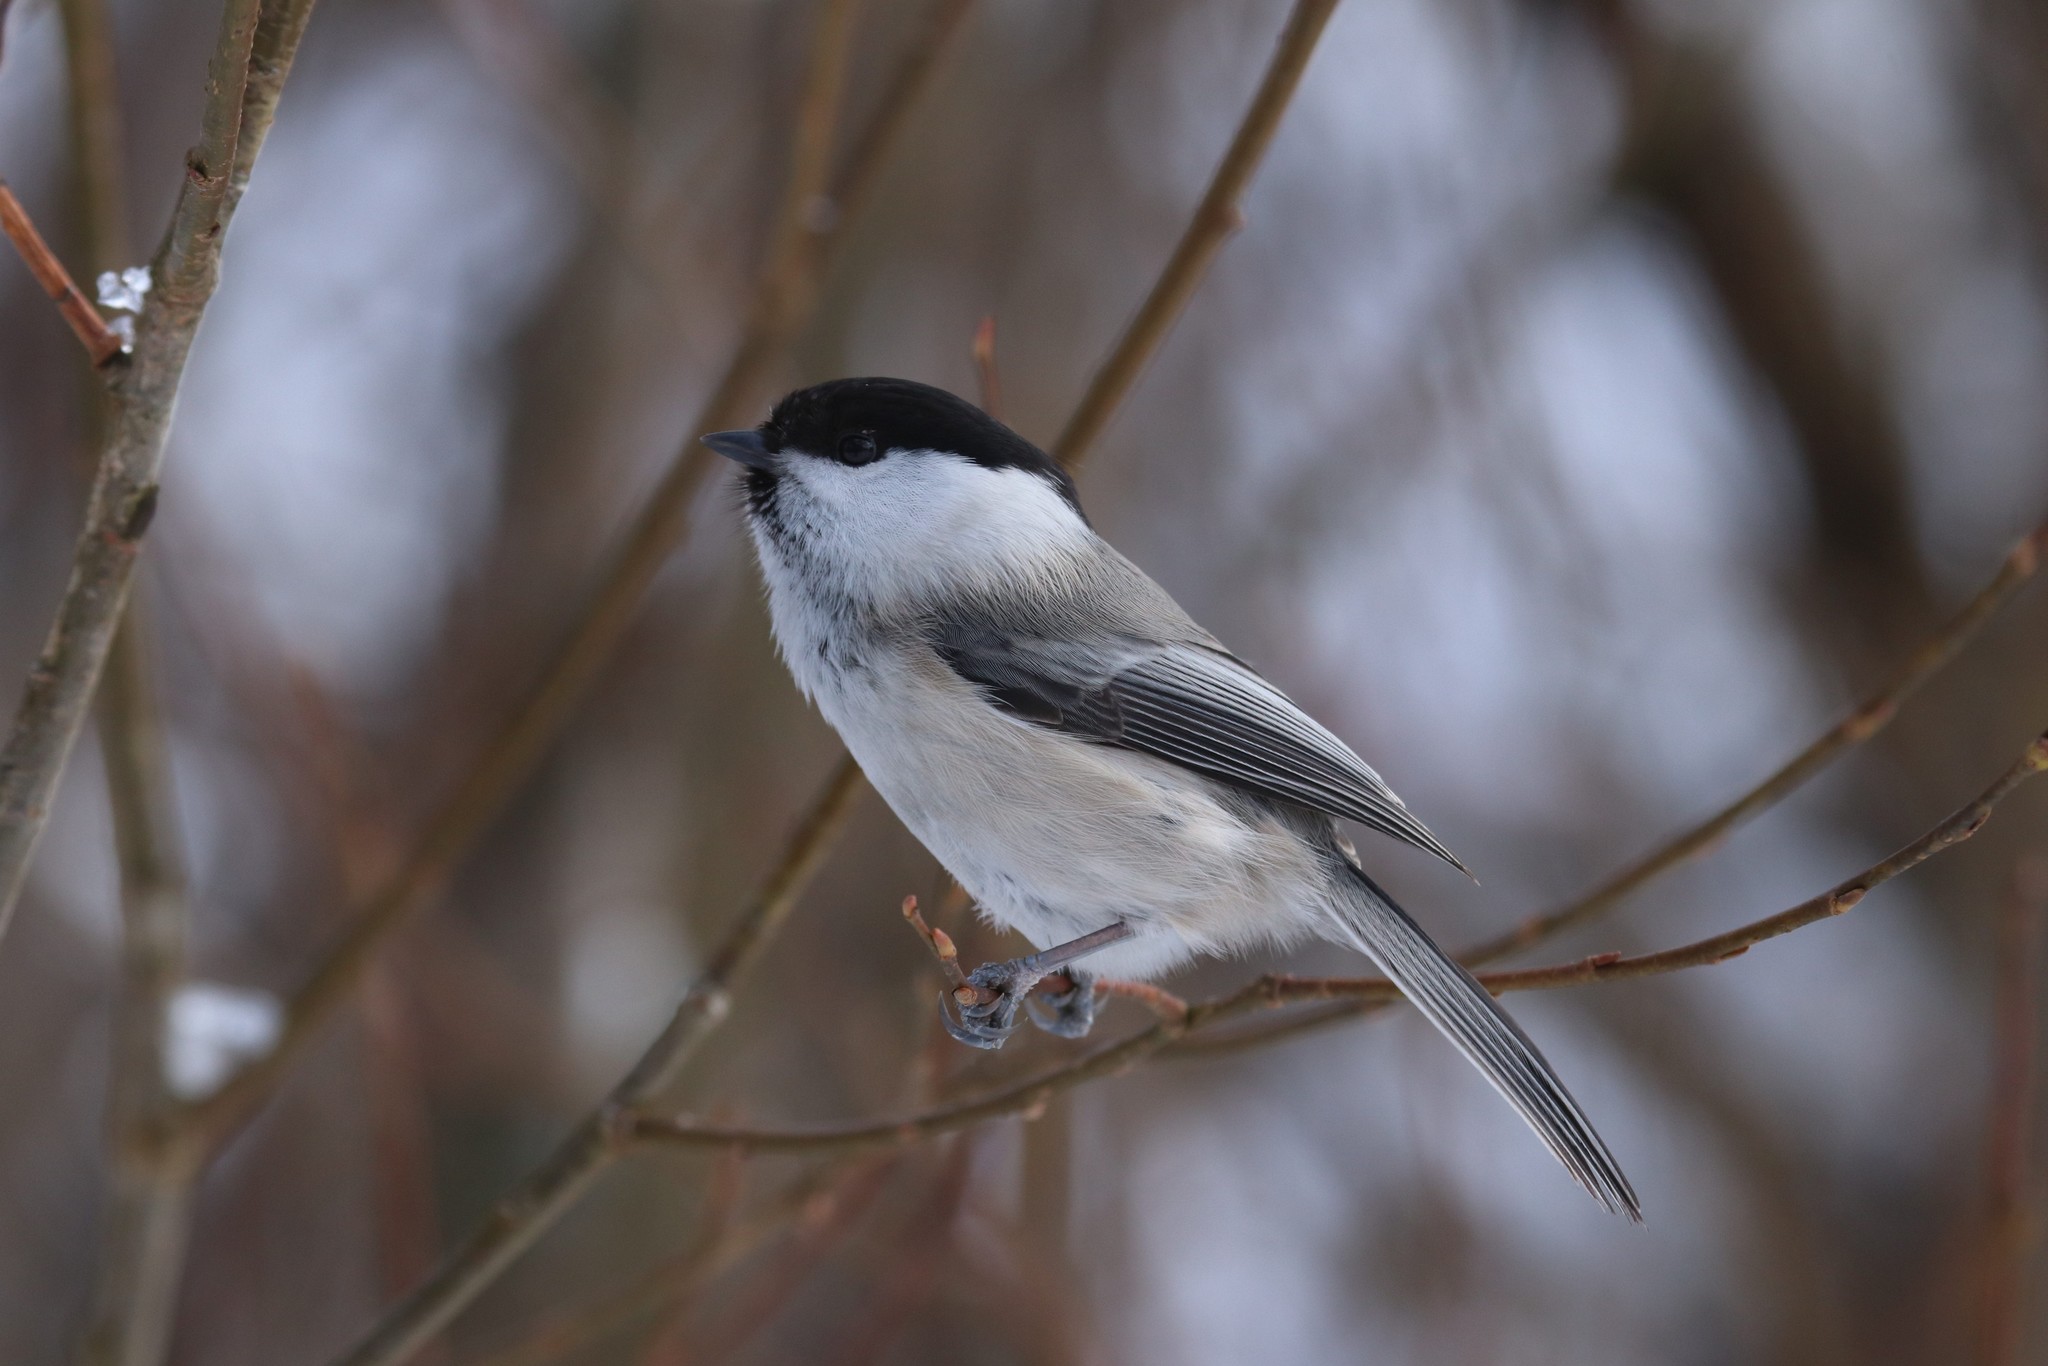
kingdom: Animalia
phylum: Chordata
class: Aves
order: Passeriformes
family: Paridae
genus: Poecile
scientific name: Poecile montanus
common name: Willow tit
